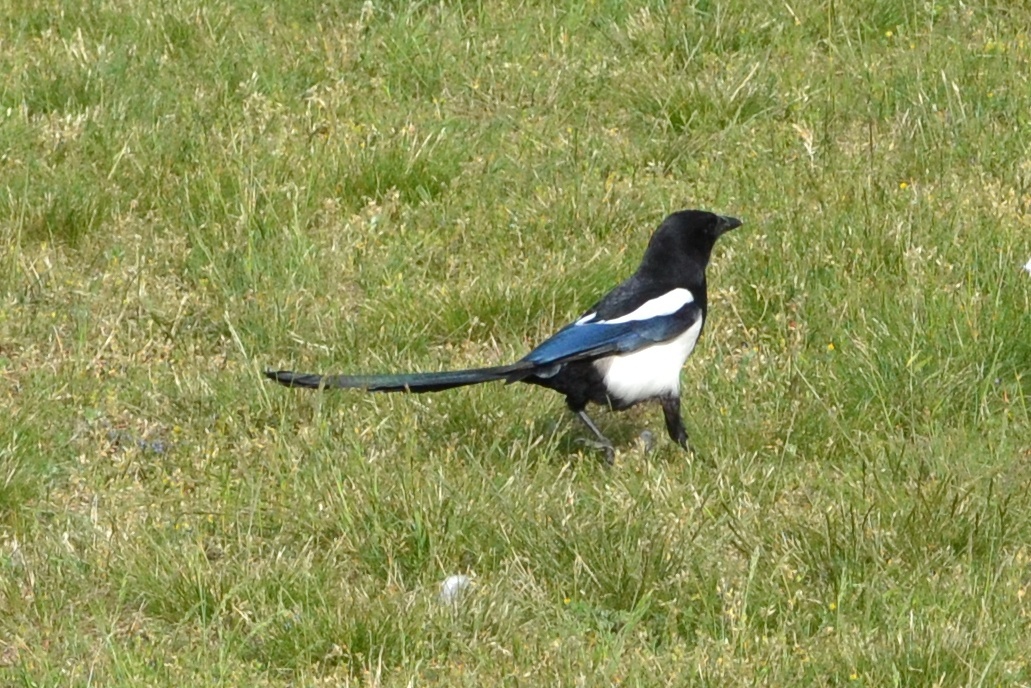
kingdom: Animalia
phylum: Chordata
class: Aves
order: Passeriformes
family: Corvidae
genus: Pica
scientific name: Pica pica
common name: Eurasian magpie
